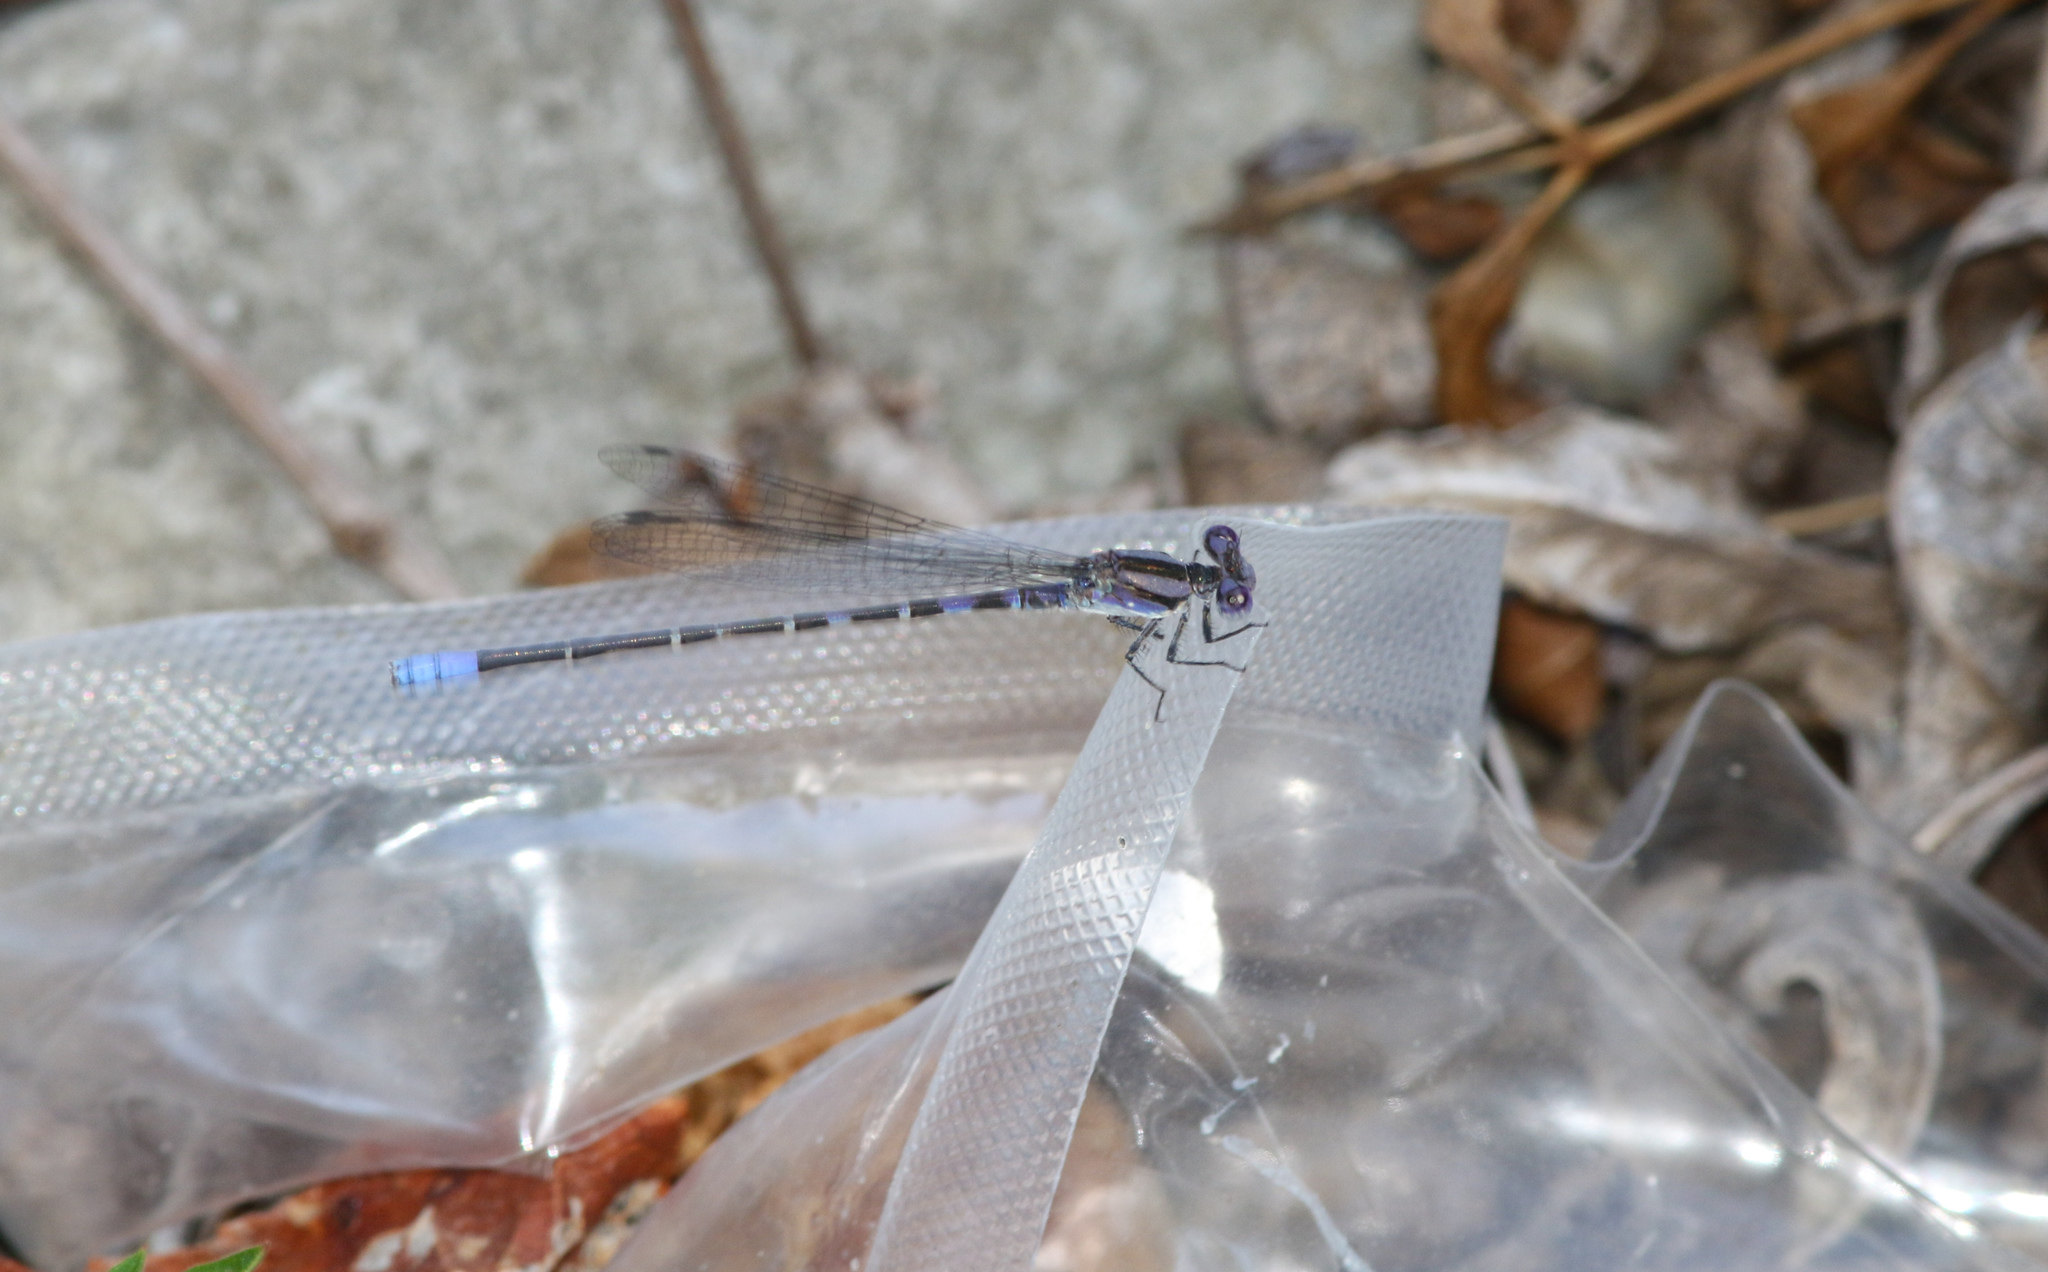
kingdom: Animalia
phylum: Arthropoda
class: Insecta
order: Odonata
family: Coenagrionidae
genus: Argia
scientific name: Argia immunda
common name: Kiowa dancer
